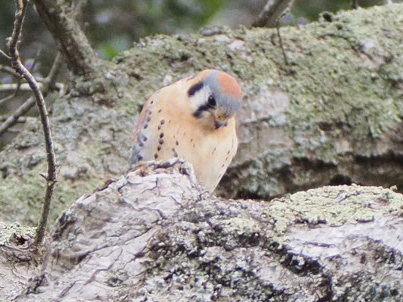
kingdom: Animalia
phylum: Chordata
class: Aves
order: Falconiformes
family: Falconidae
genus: Falco
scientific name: Falco sparverius
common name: American kestrel
